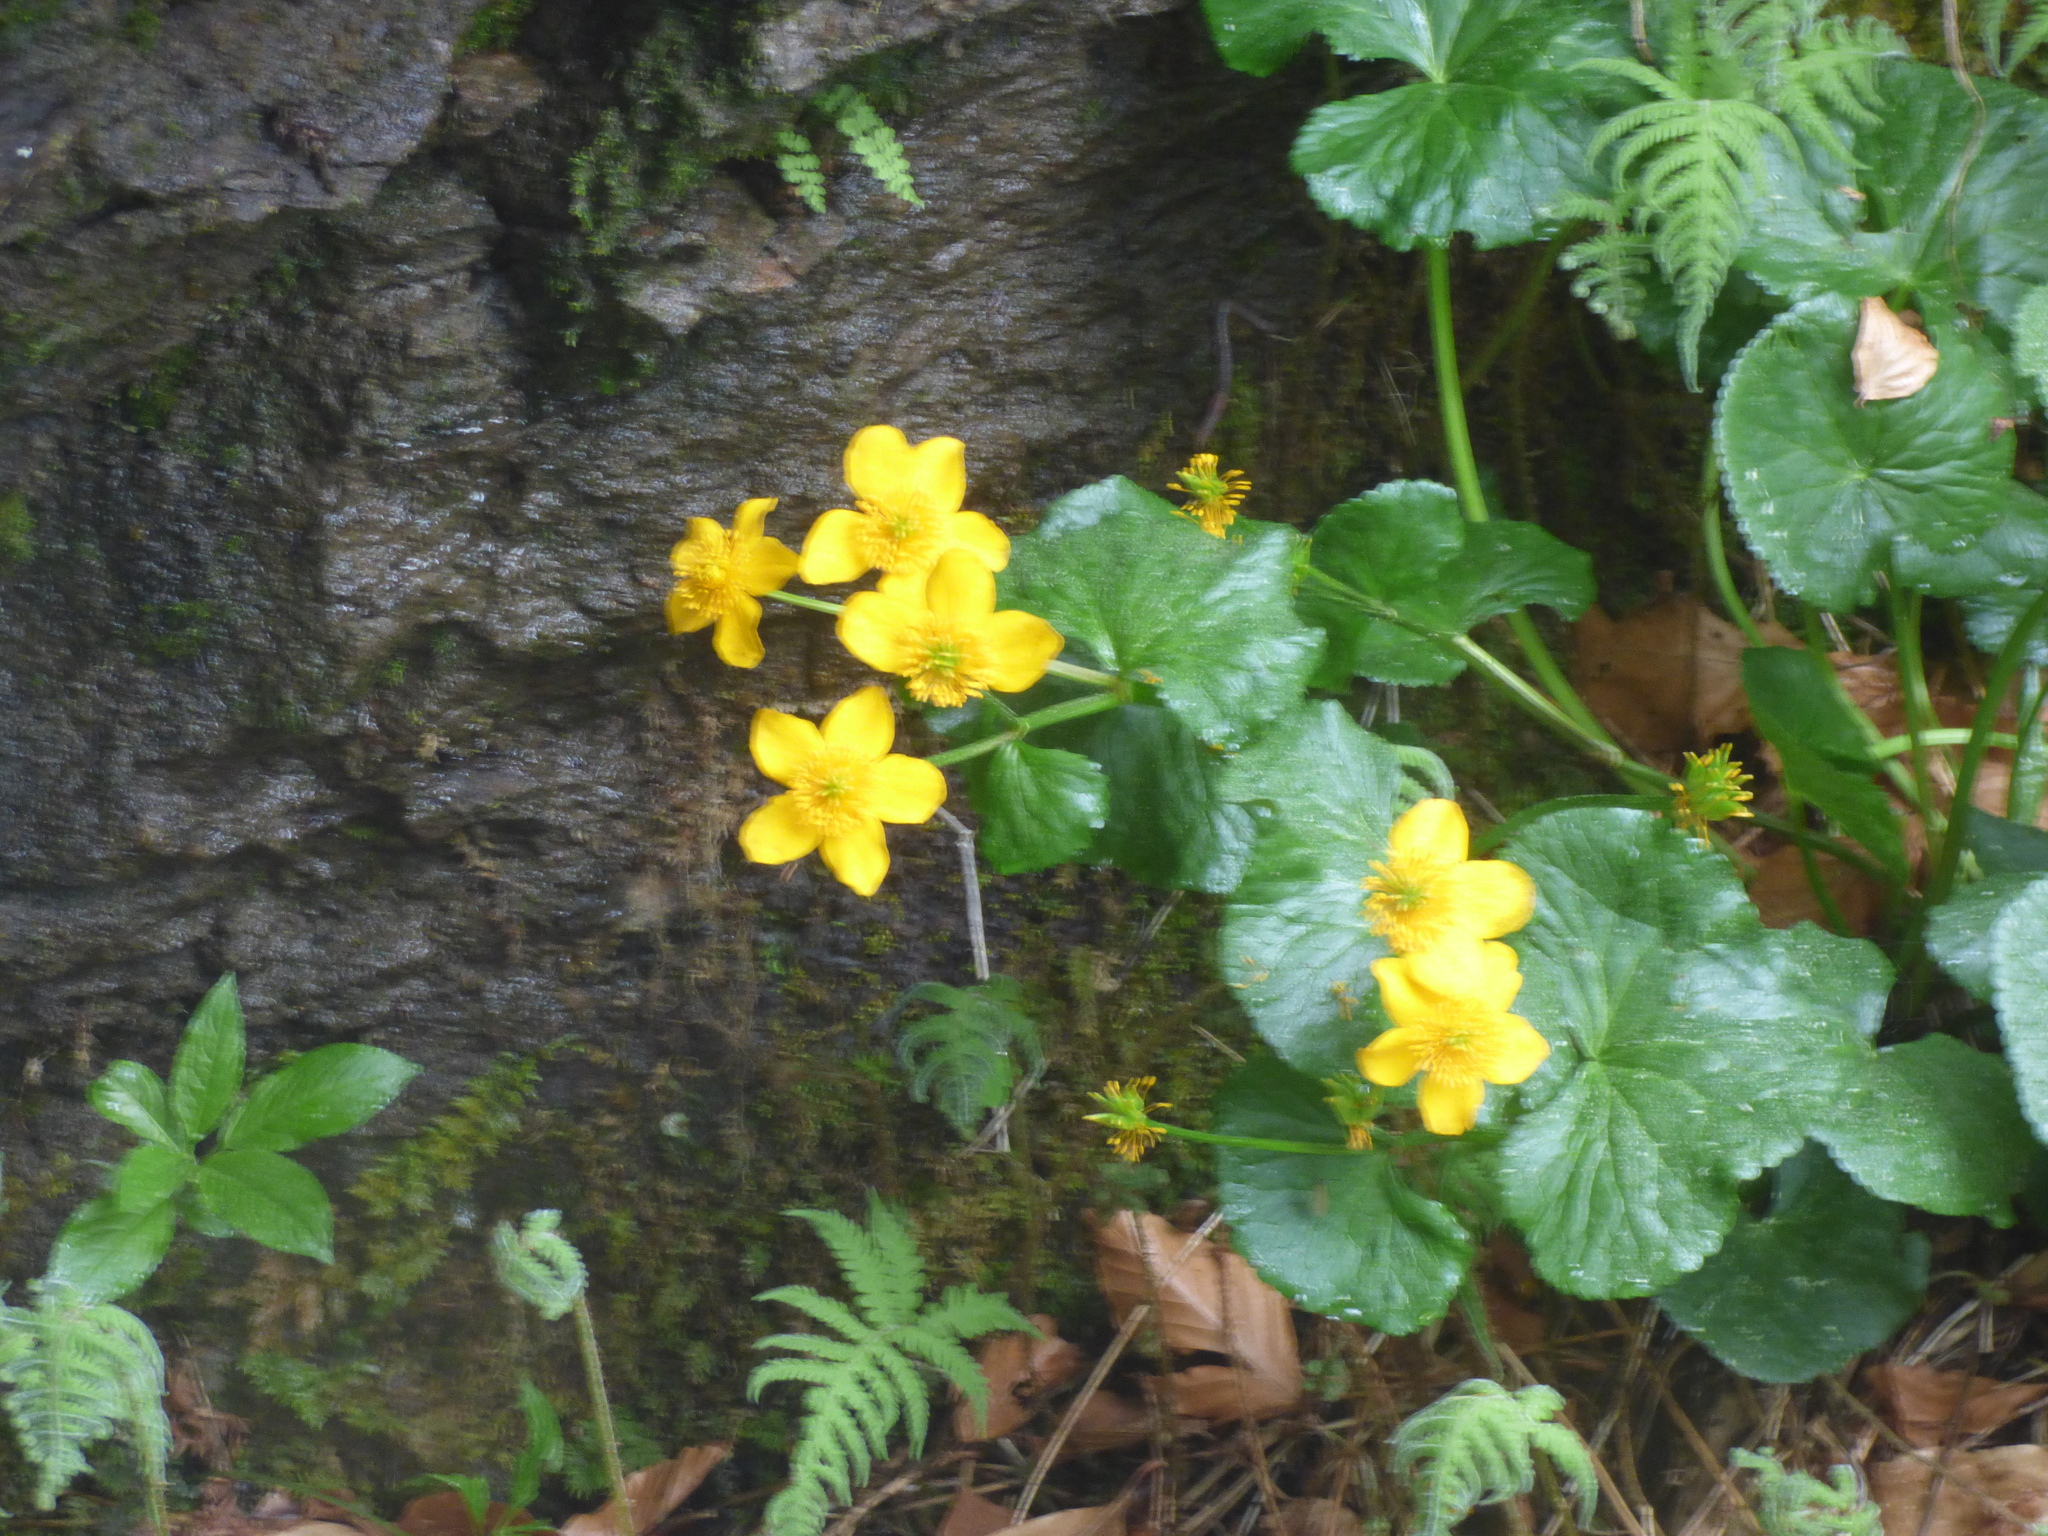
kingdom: Plantae
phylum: Tracheophyta
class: Magnoliopsida
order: Ranunculales
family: Ranunculaceae
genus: Caltha
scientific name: Caltha palustris
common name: Marsh marigold
